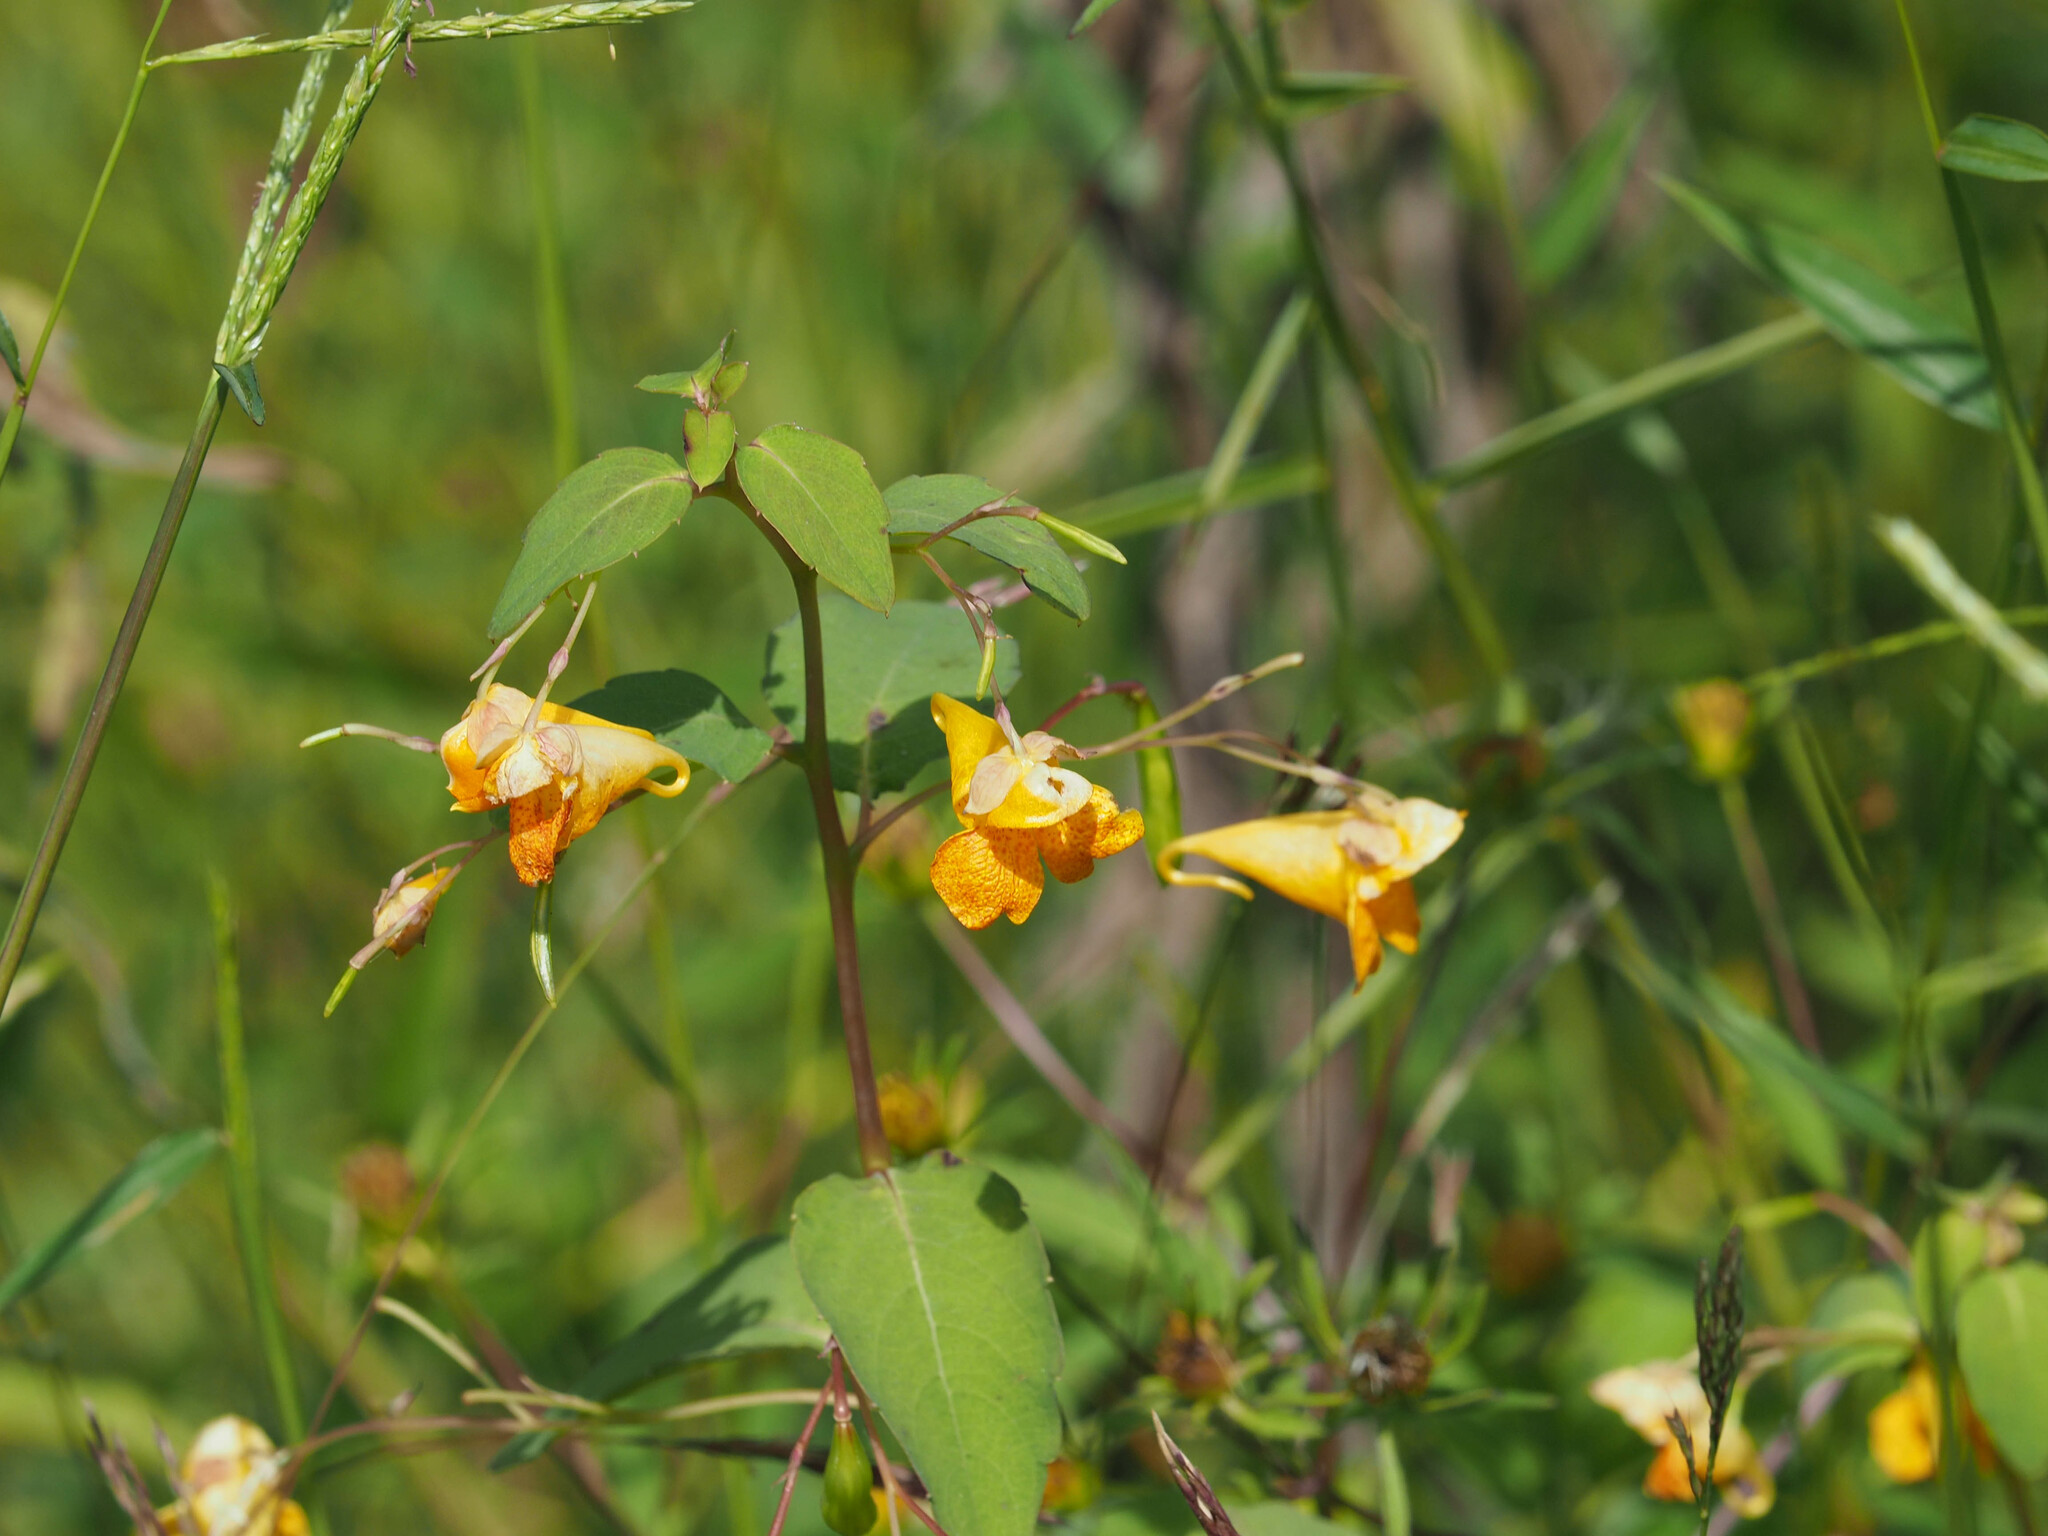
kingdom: Plantae
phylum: Tracheophyta
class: Magnoliopsida
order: Ericales
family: Balsaminaceae
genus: Impatiens
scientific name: Impatiens capensis
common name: Orange balsam
